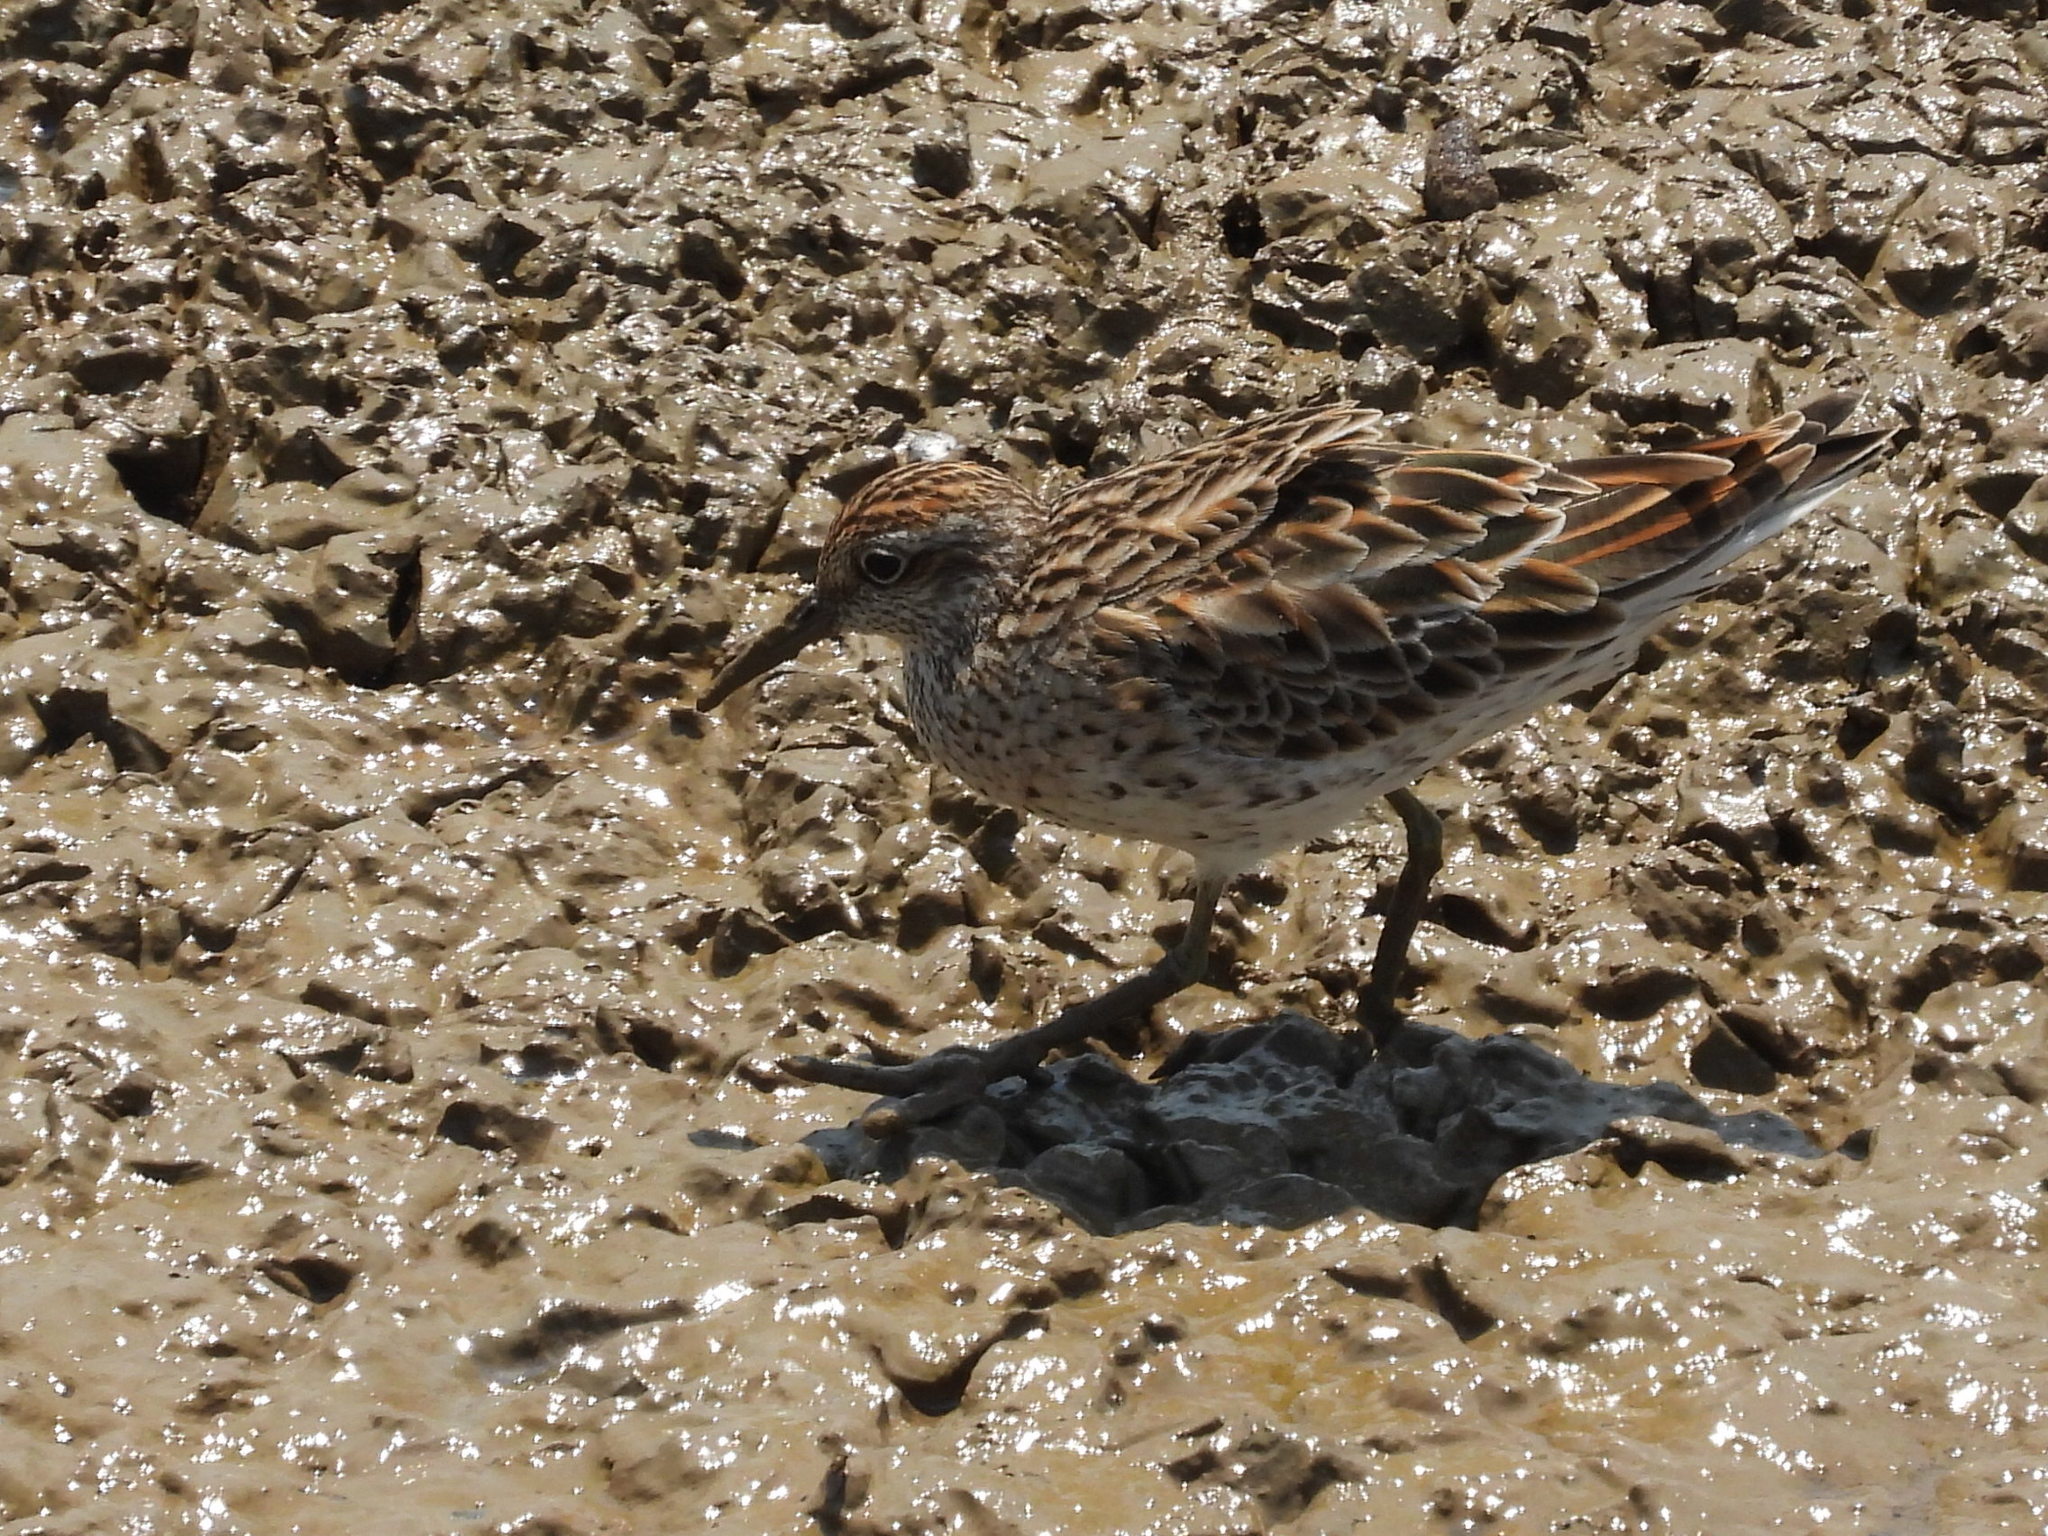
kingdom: Animalia
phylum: Chordata
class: Aves
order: Charadriiformes
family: Scolopacidae
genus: Calidris
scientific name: Calidris acuminata
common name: Sharp-tailed sandpiper
